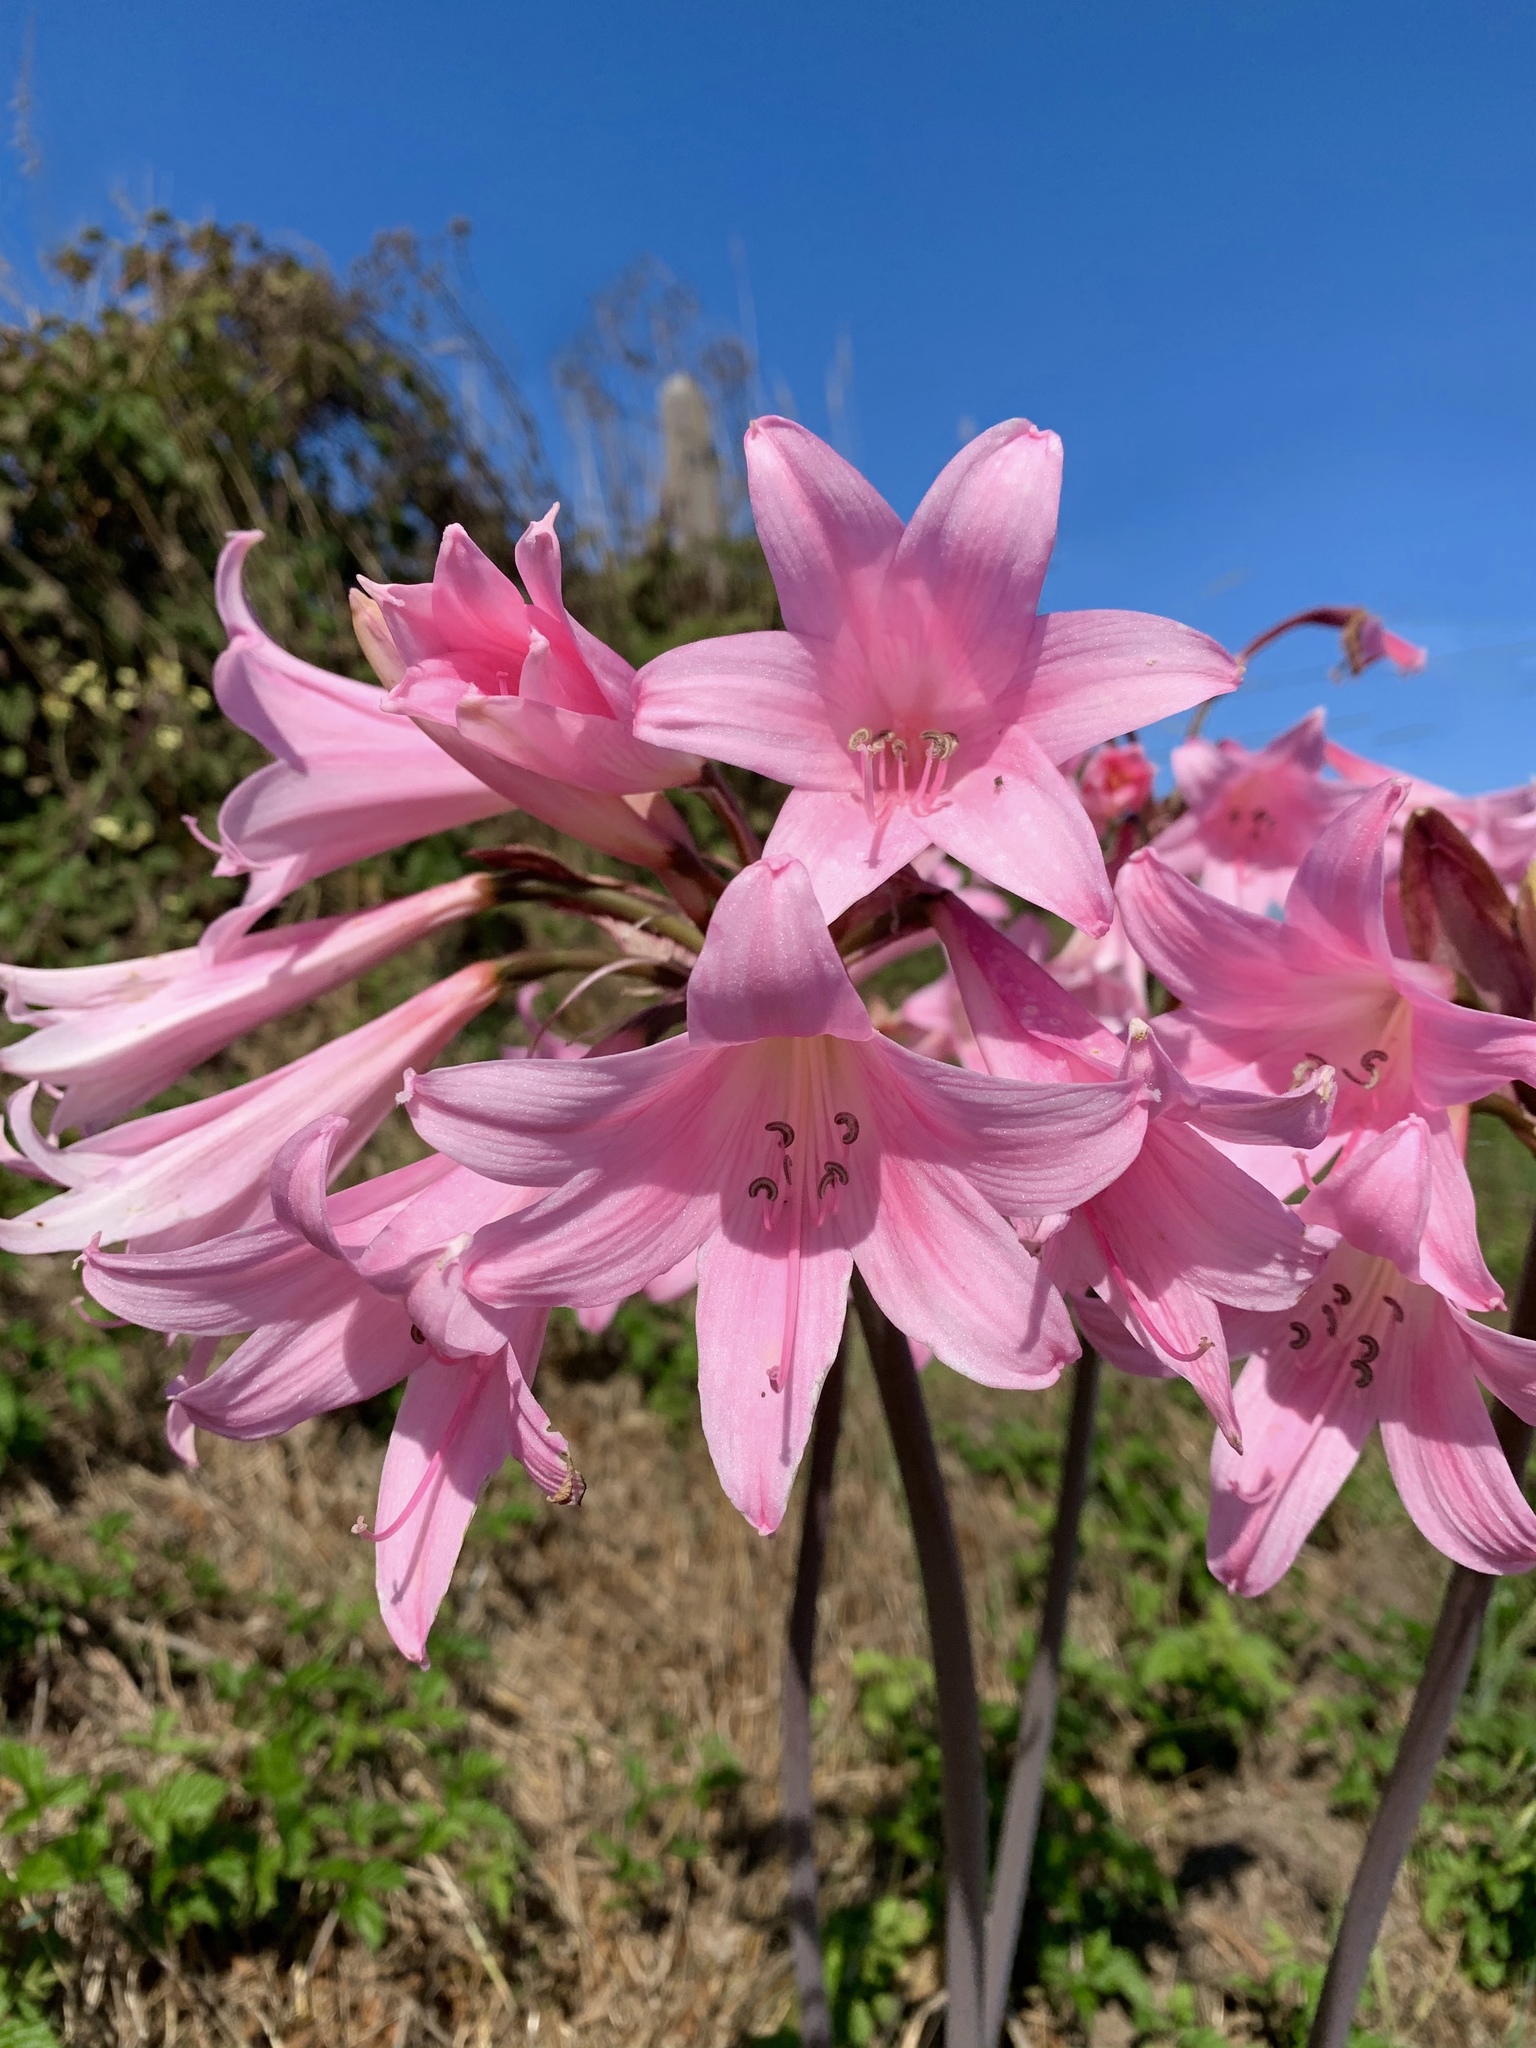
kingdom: Plantae
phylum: Tracheophyta
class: Liliopsida
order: Asparagales
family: Amaryllidaceae
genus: Amaryllis
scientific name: Amaryllis belladonna
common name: Jersey lily
